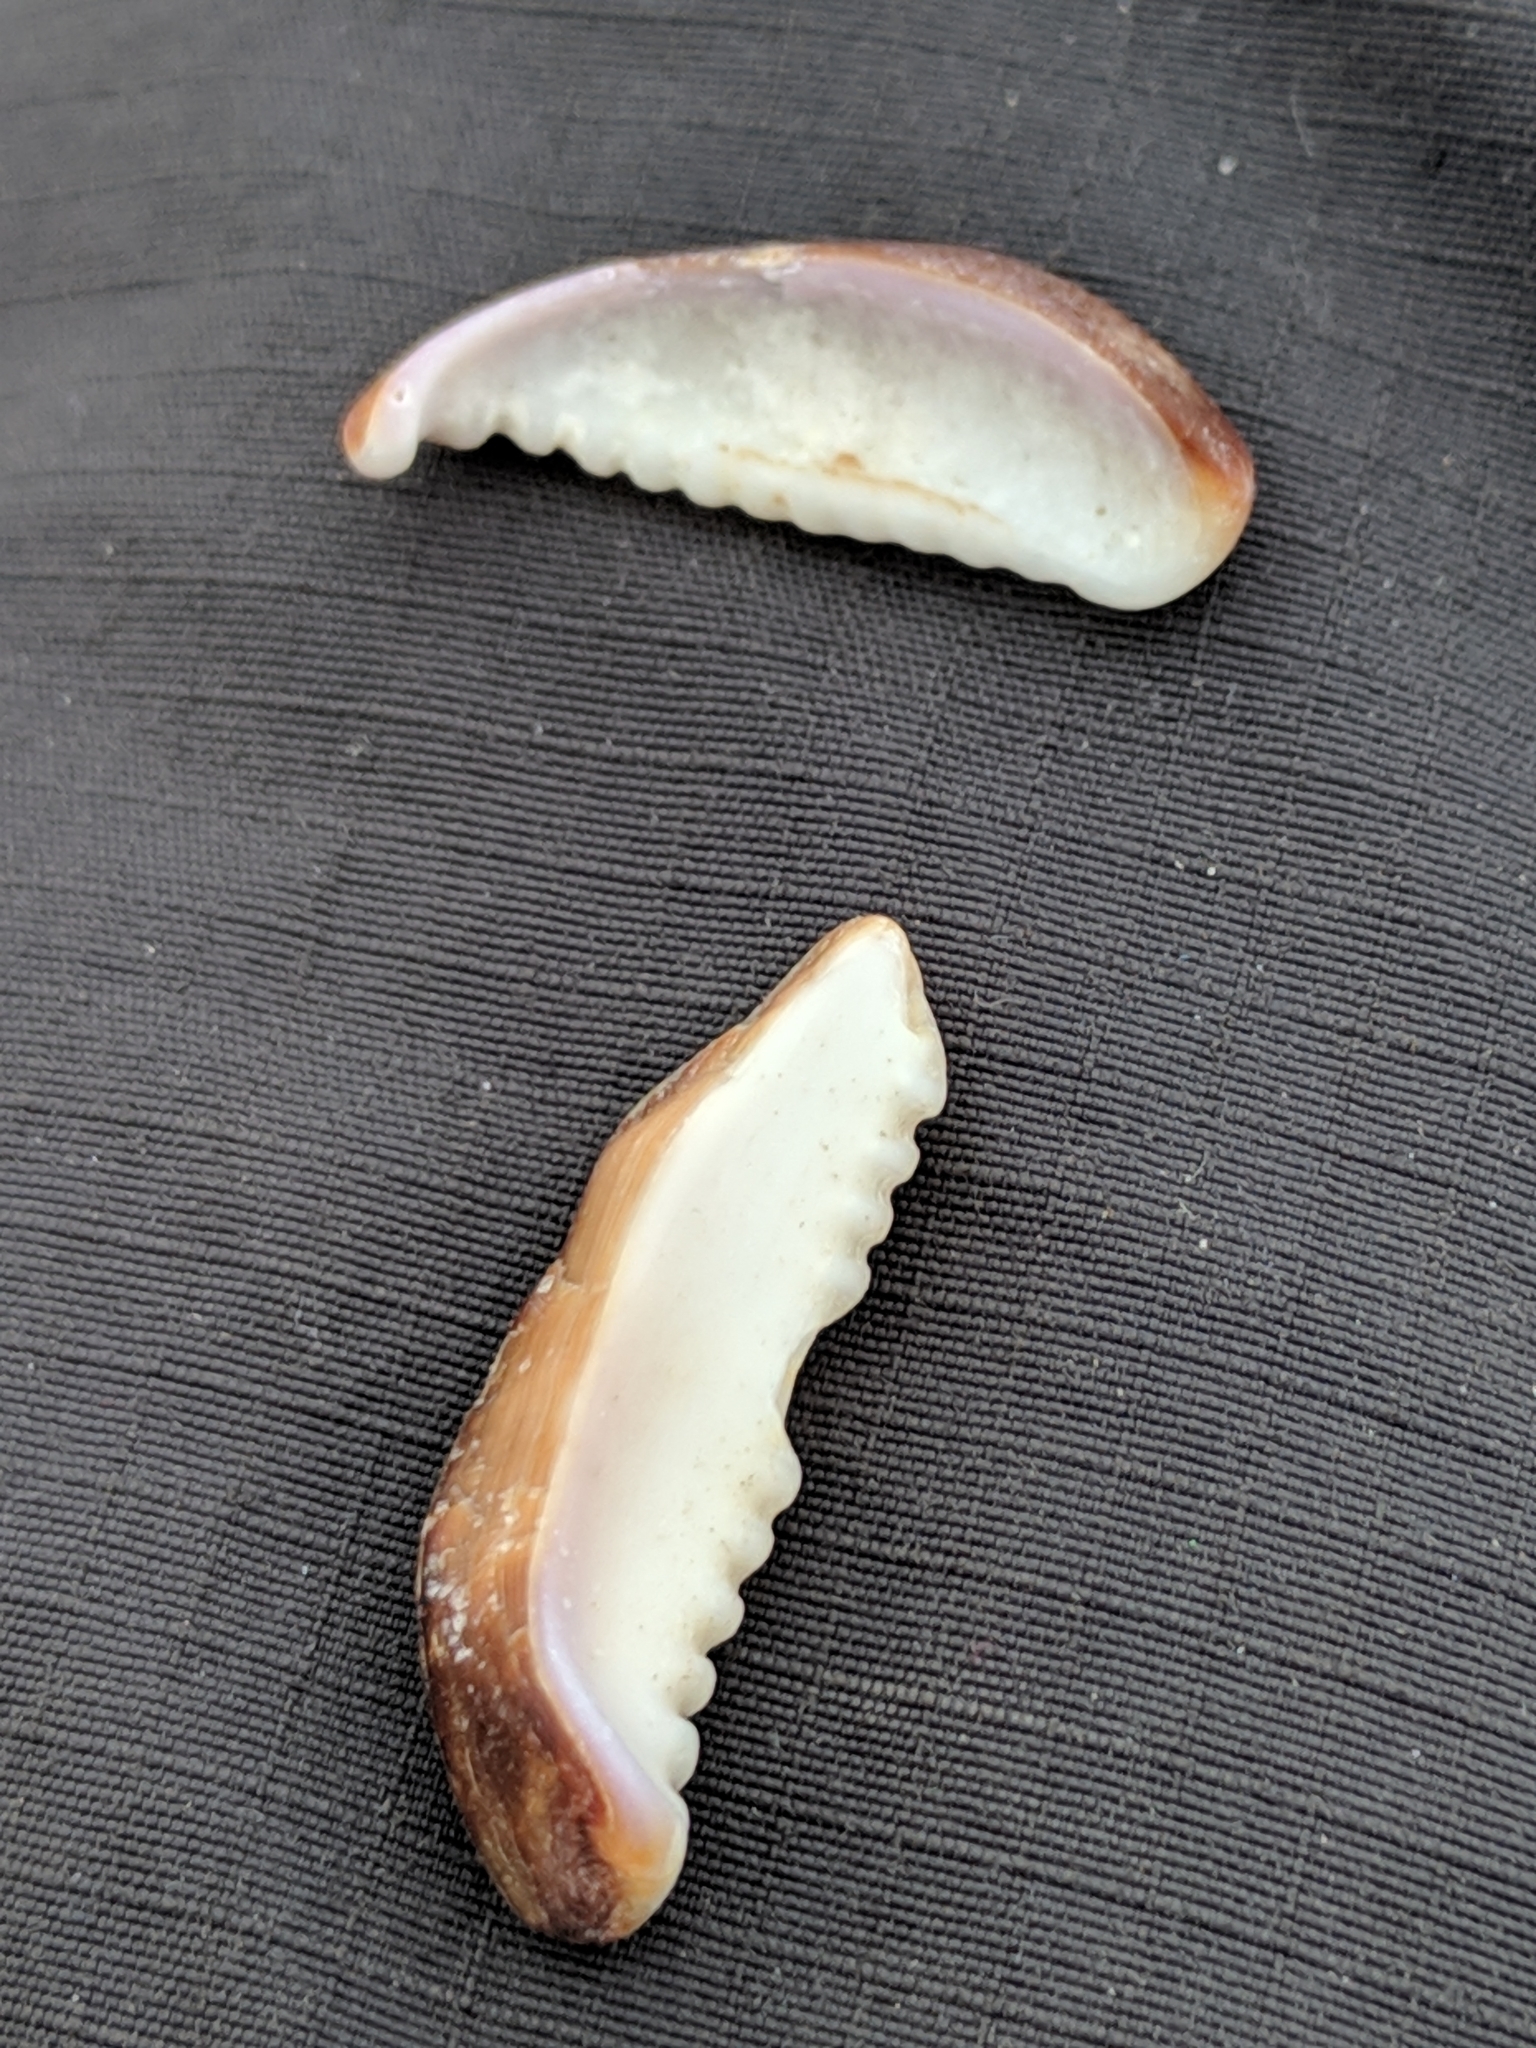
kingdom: Animalia
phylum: Mollusca
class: Gastropoda
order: Littorinimorpha
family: Cypraeidae
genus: Monetaria
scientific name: Monetaria caputserpentis
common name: Serpent's head cowrie
